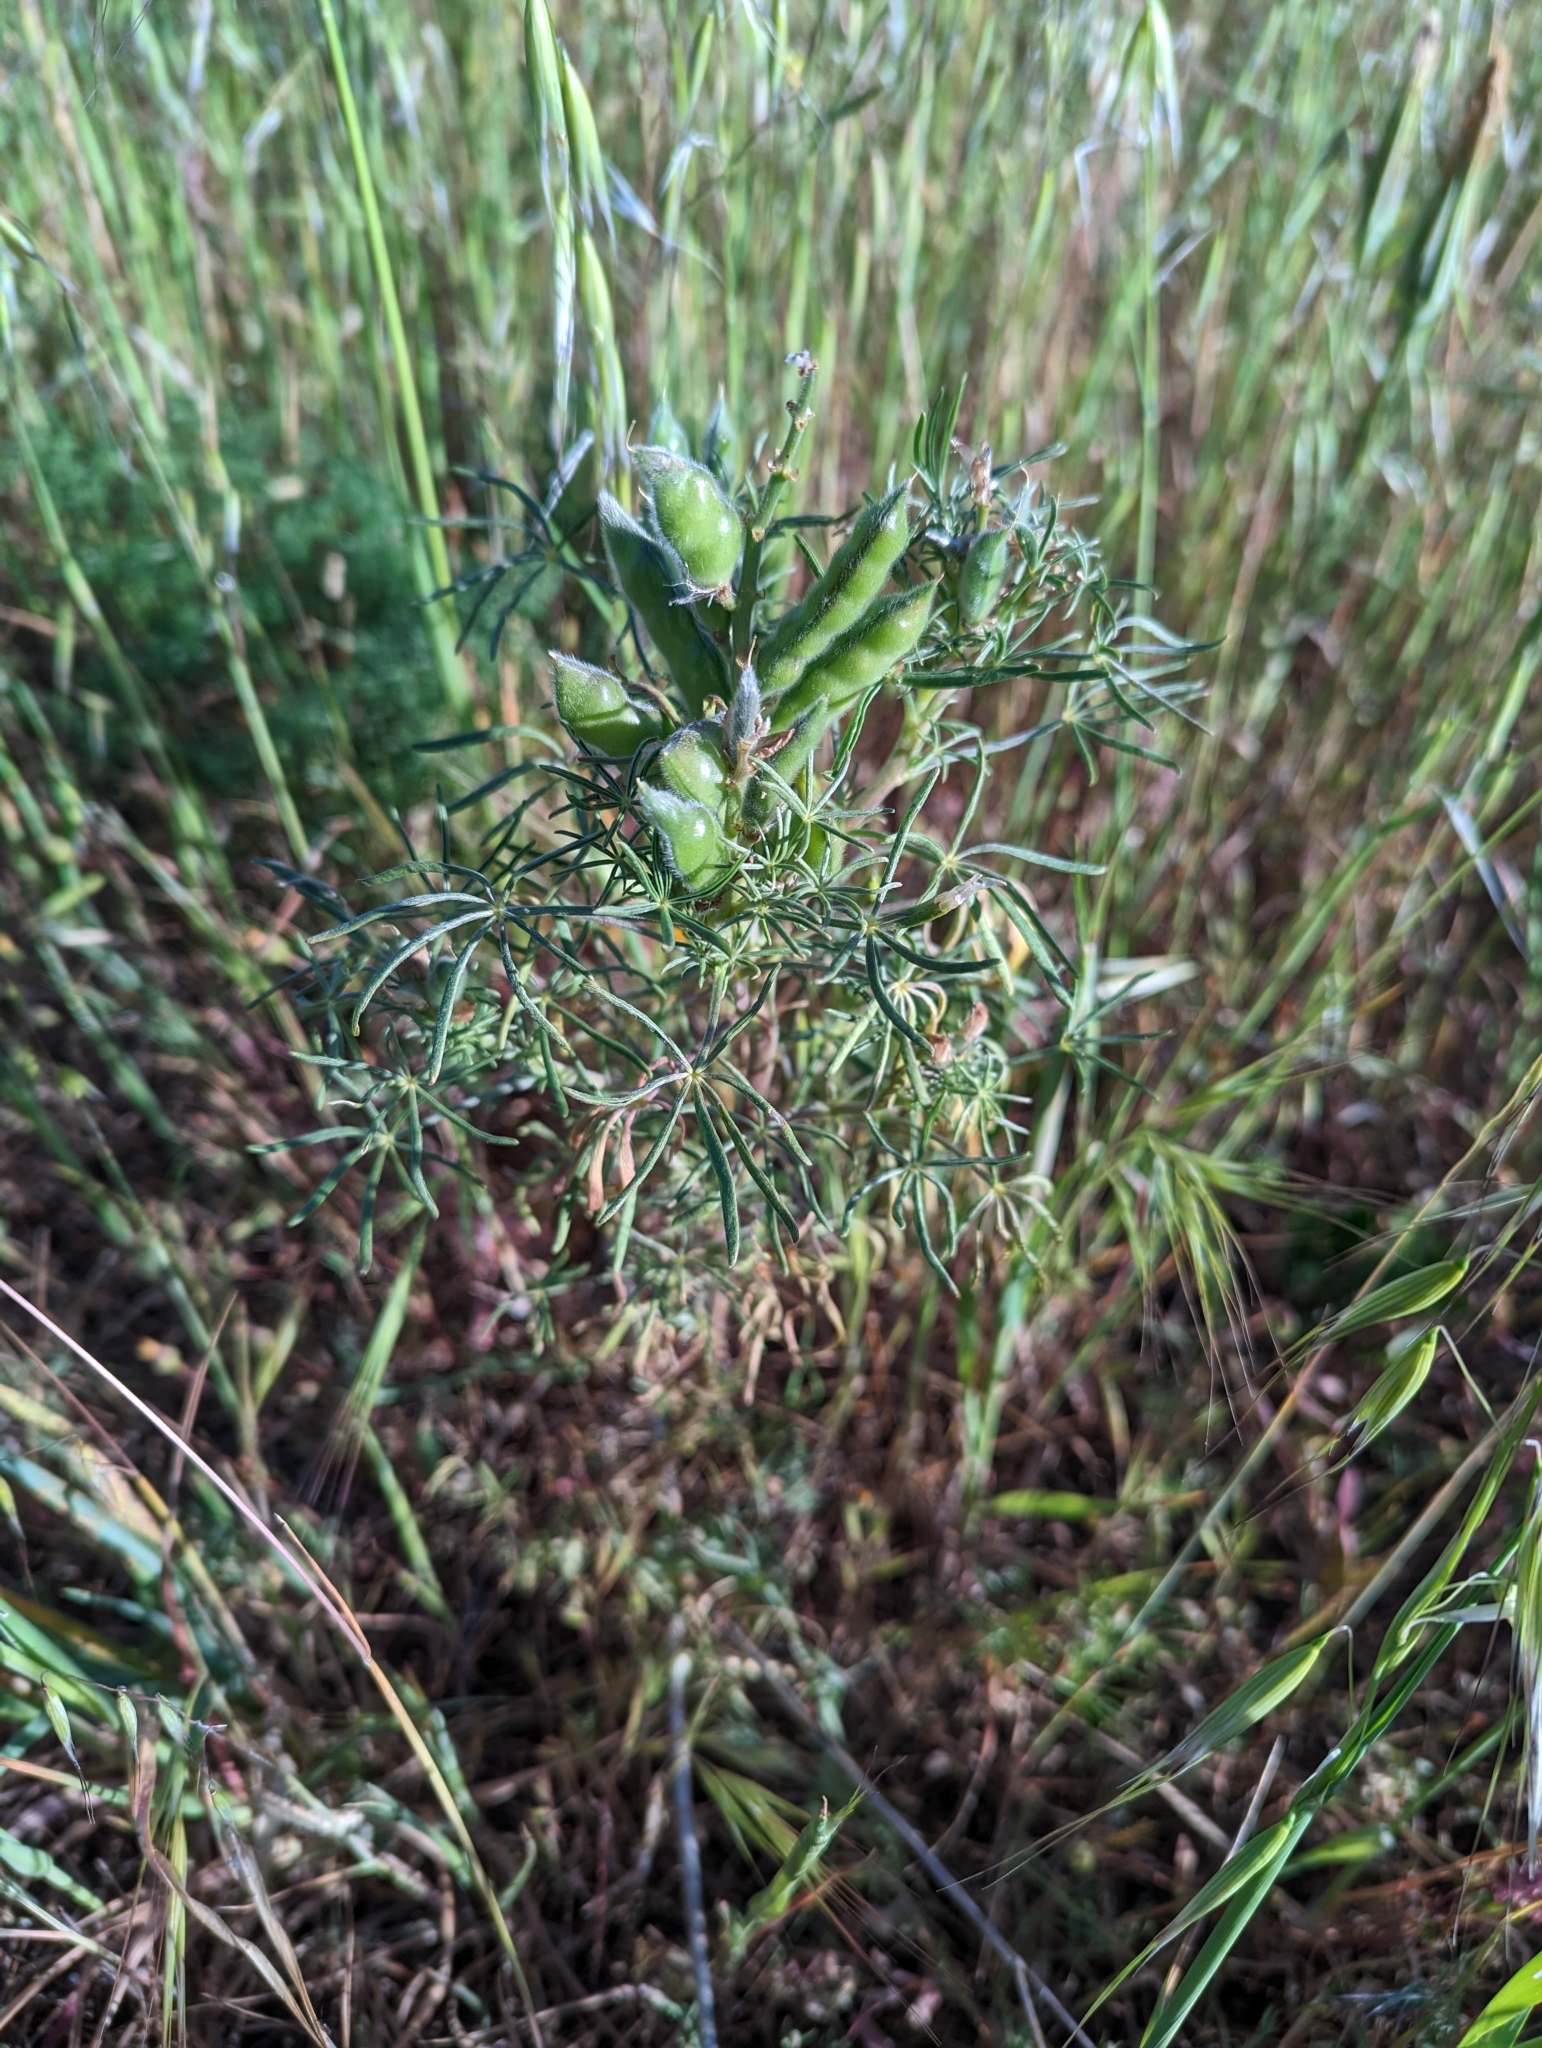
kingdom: Plantae
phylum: Tracheophyta
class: Magnoliopsida
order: Fabales
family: Fabaceae
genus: Lupinus
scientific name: Lupinus angustifolius
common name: Narrow-leaved lupin
